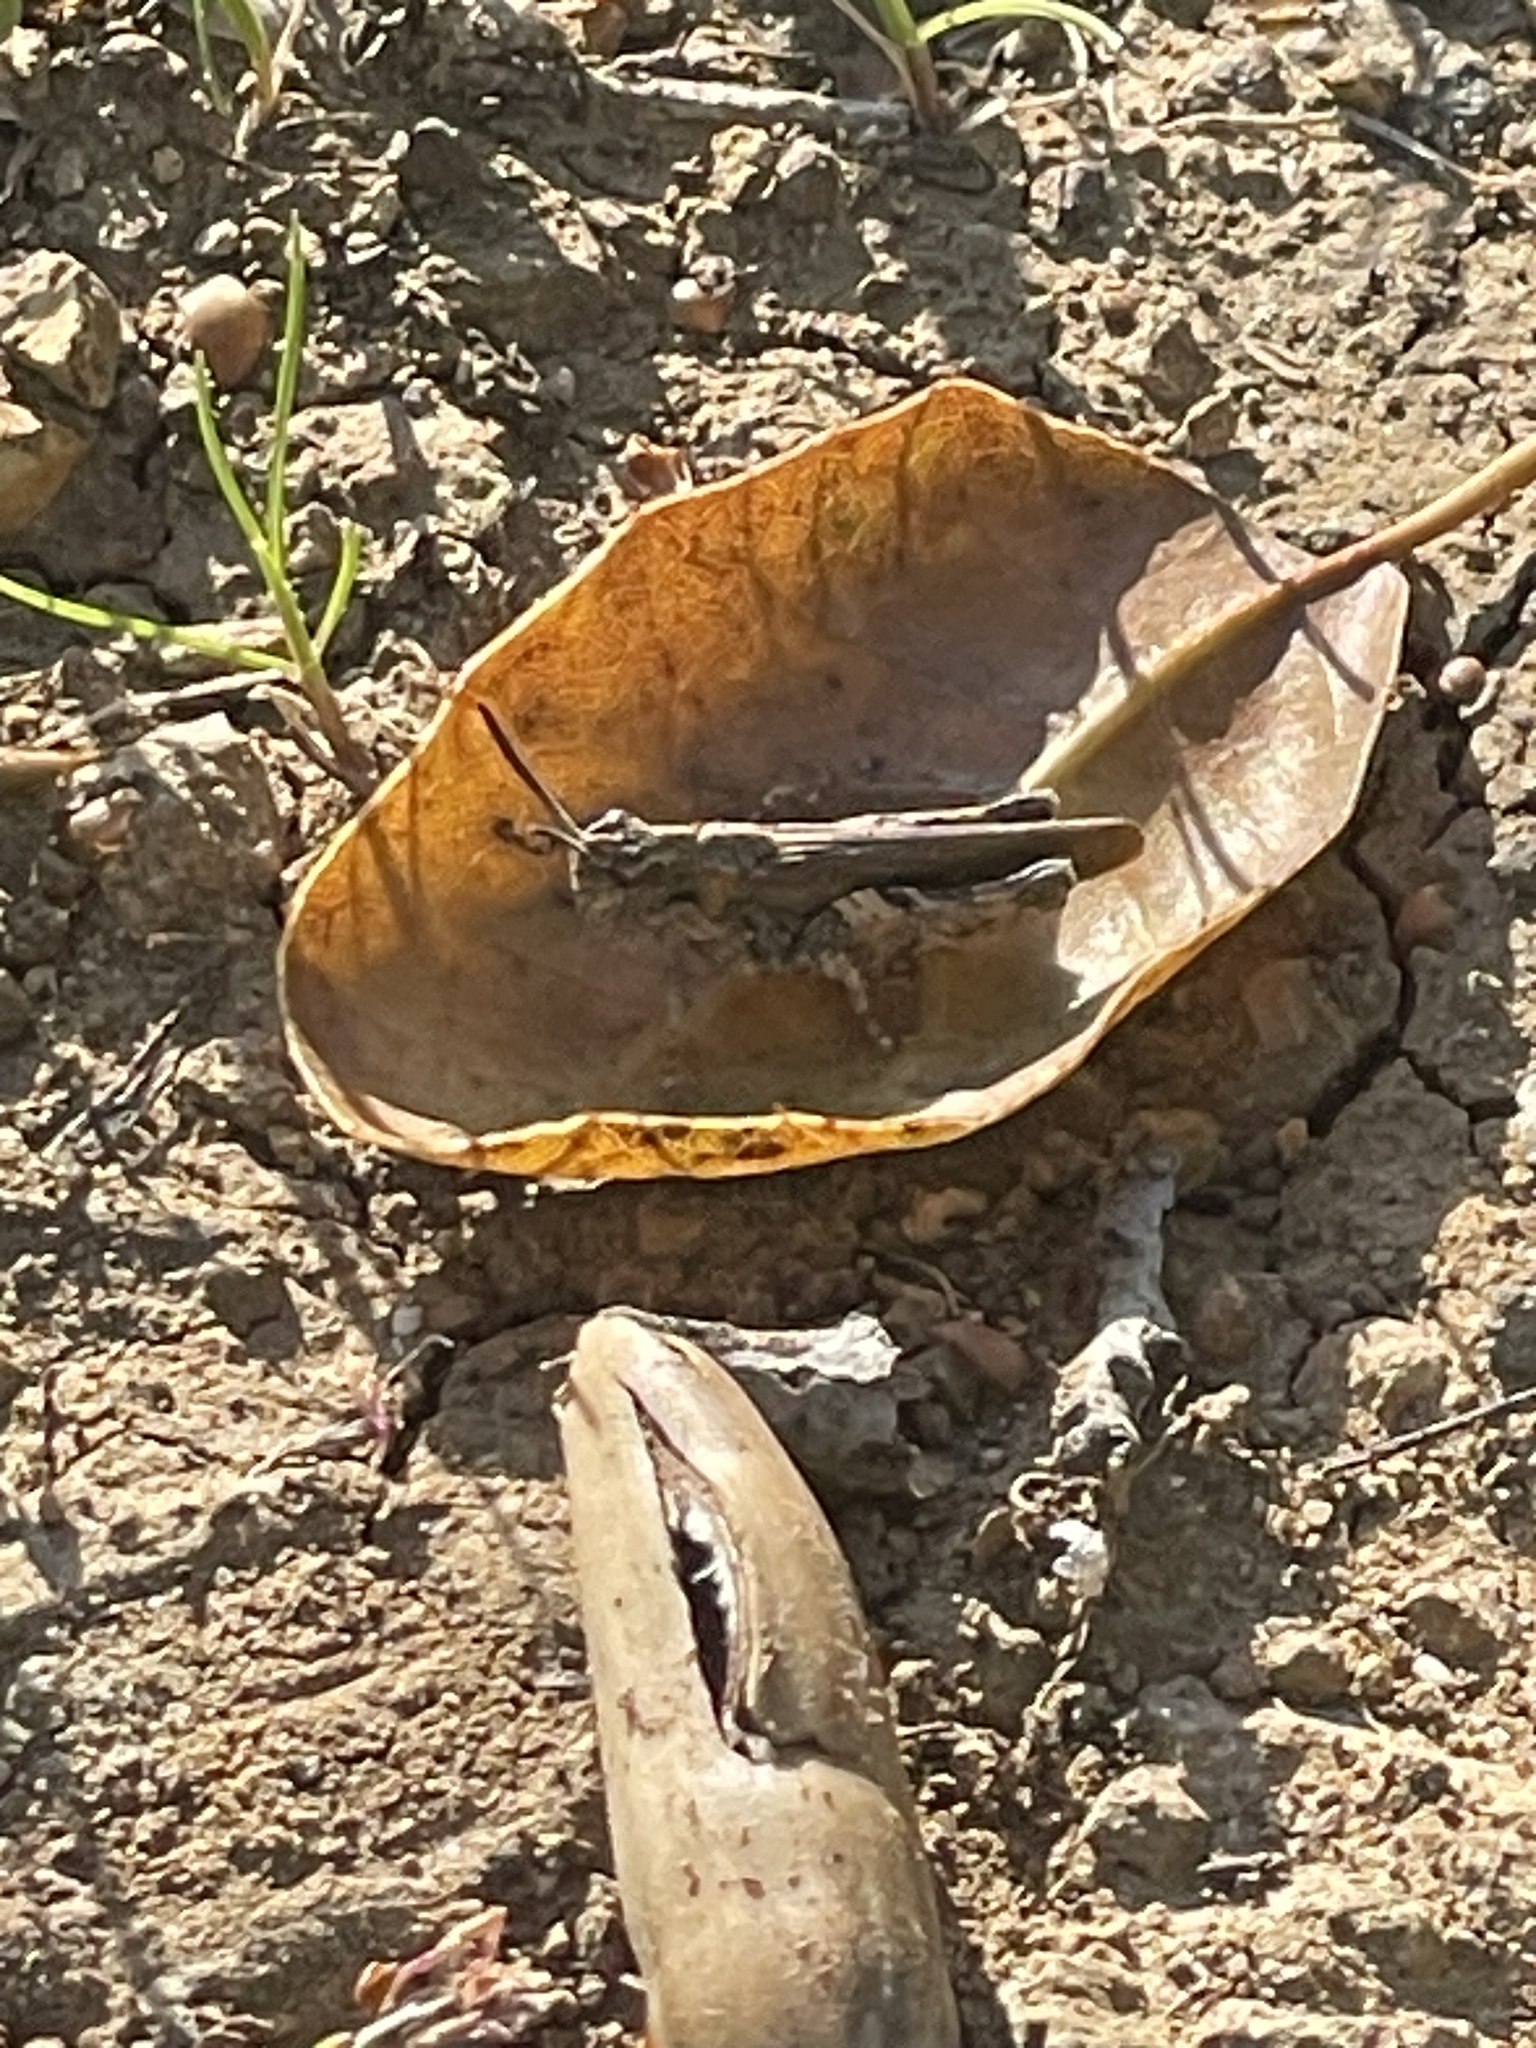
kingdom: Animalia
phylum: Arthropoda
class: Insecta
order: Orthoptera
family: Acrididae
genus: Chimarocephala
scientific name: Chimarocephala pacifica
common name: Painted meadow grasshopper
